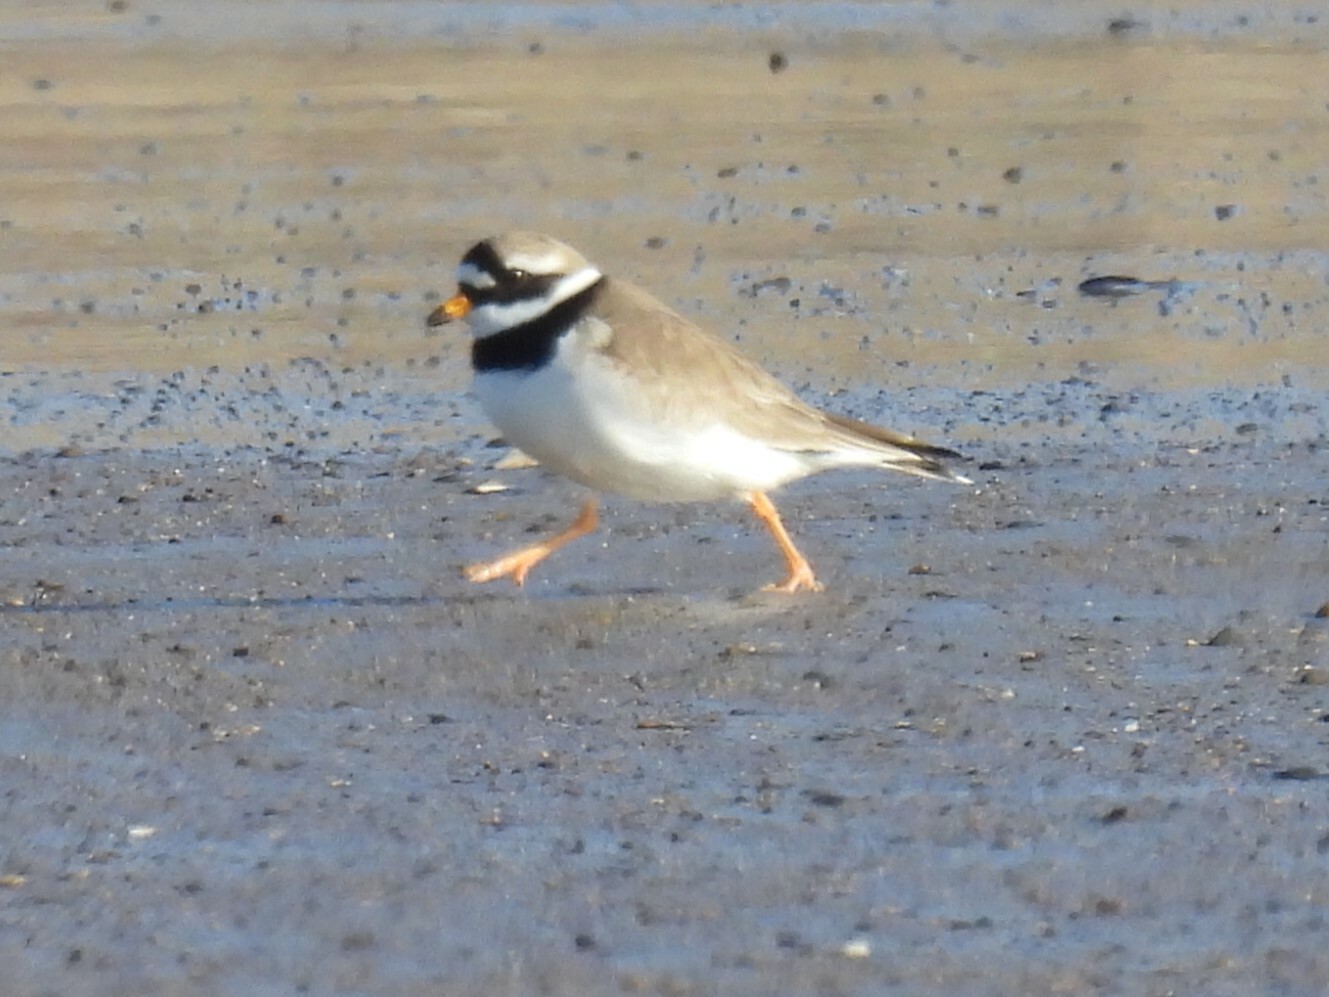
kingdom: Animalia
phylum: Chordata
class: Aves
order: Charadriiformes
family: Charadriidae
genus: Charadrius
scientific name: Charadrius hiaticula
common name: Common ringed plover
